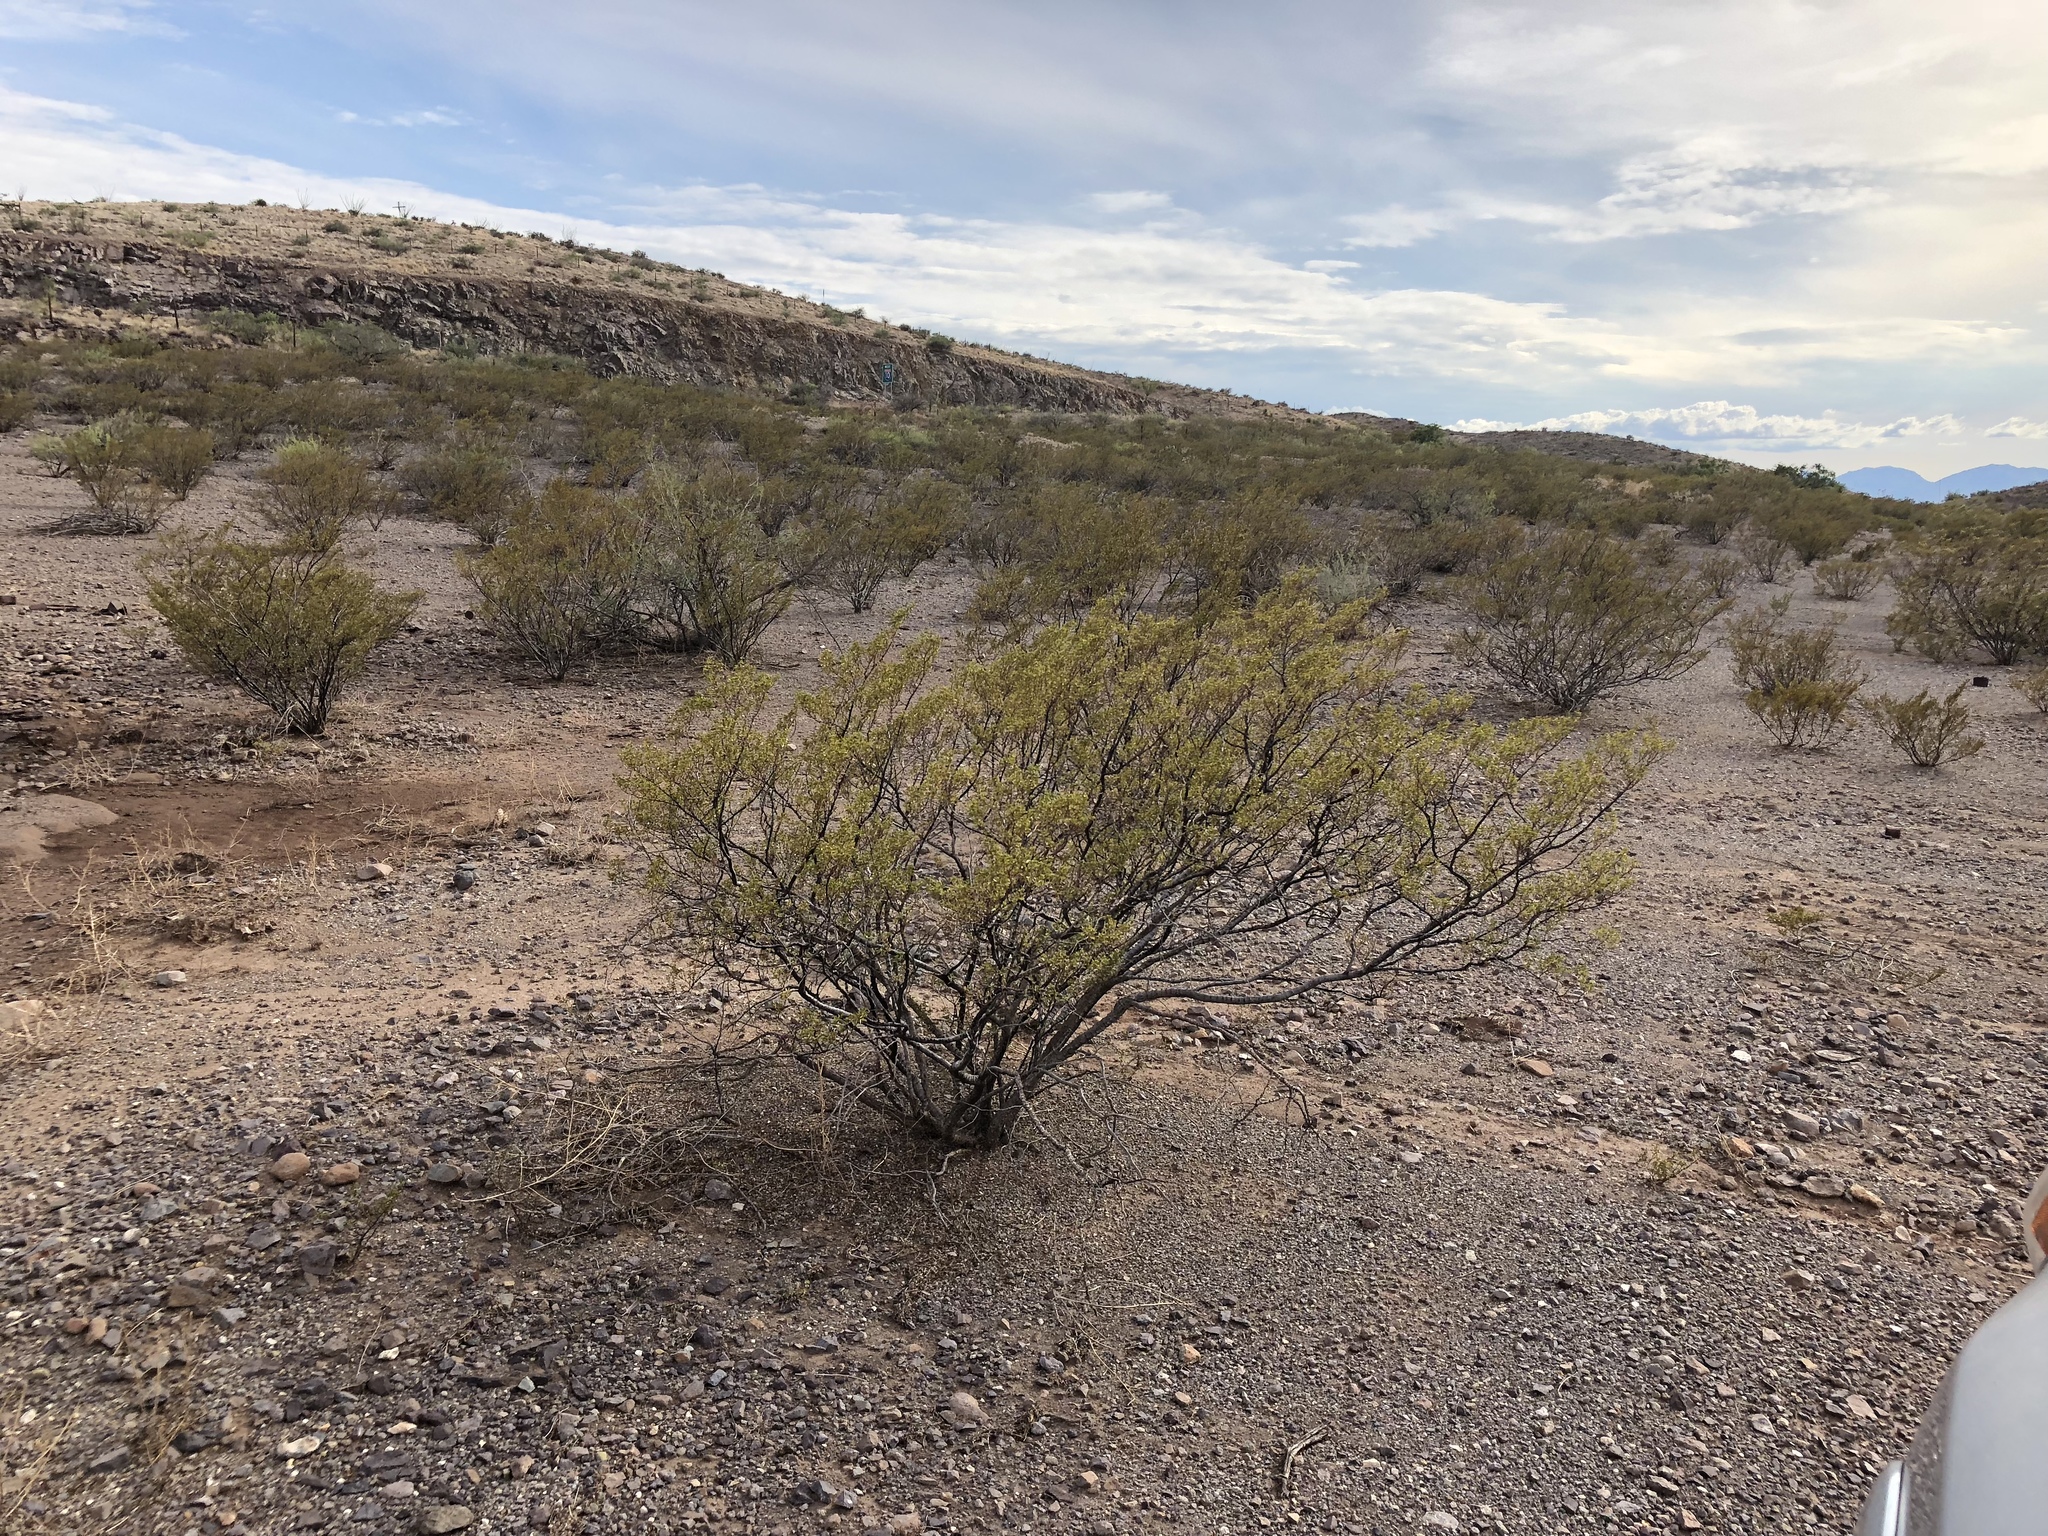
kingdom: Plantae
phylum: Tracheophyta
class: Magnoliopsida
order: Zygophyllales
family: Zygophyllaceae
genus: Larrea
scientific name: Larrea tridentata
